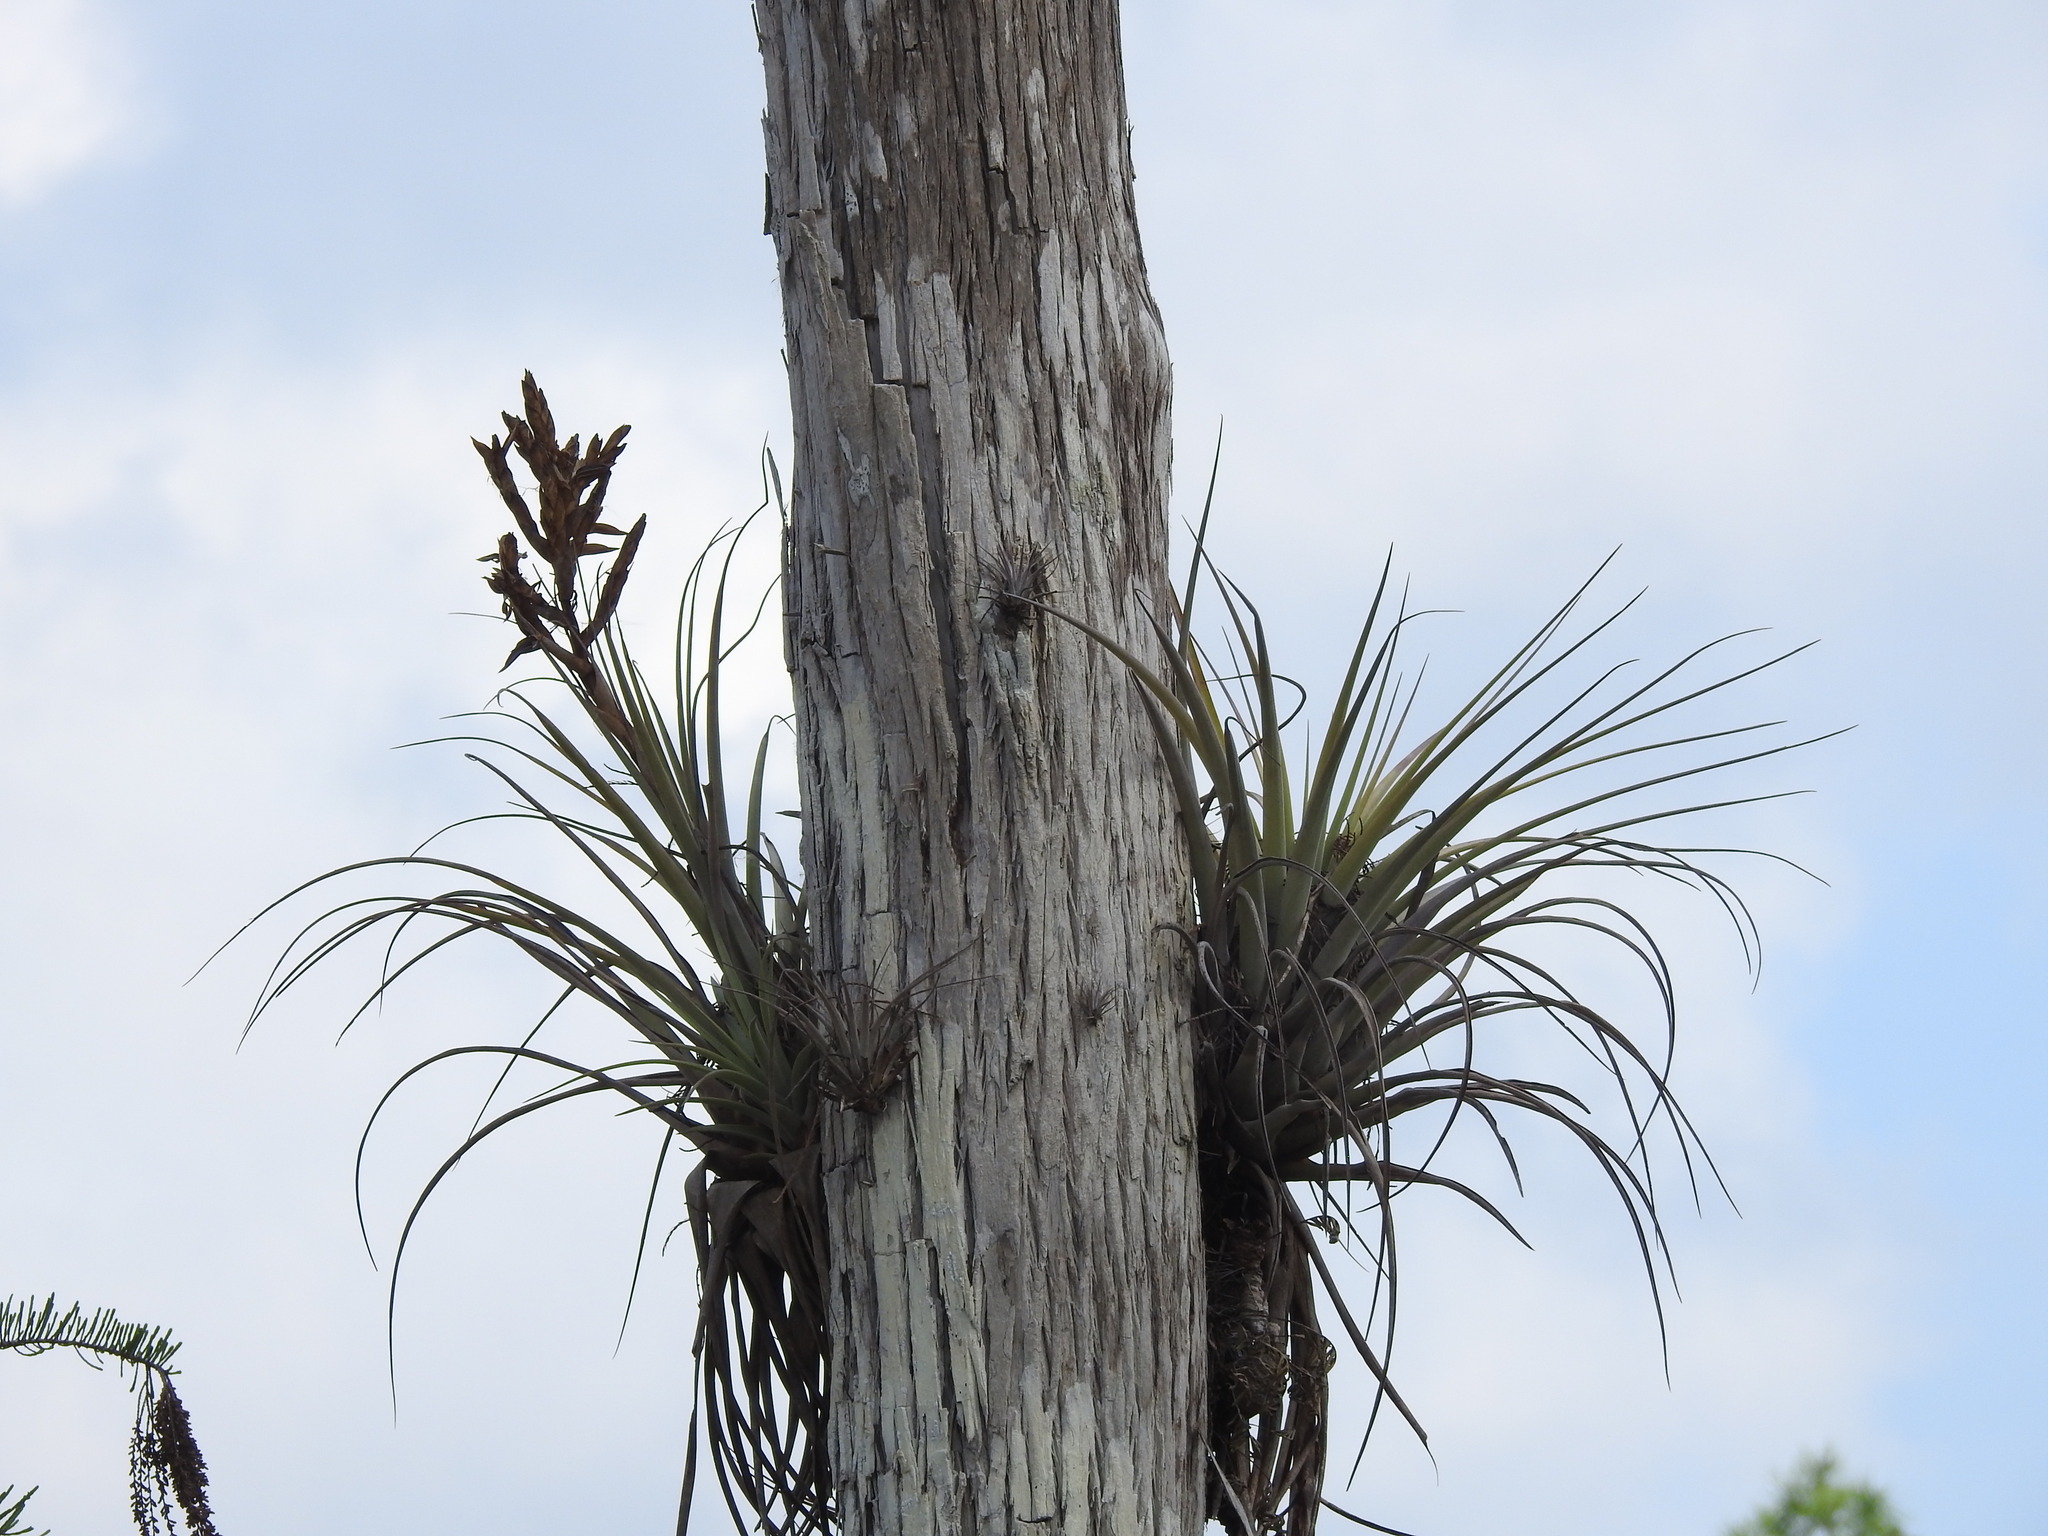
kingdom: Plantae
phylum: Tracheophyta
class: Liliopsida
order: Poales
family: Bromeliaceae
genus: Tillandsia
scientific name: Tillandsia fasciculata
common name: Giant airplant
